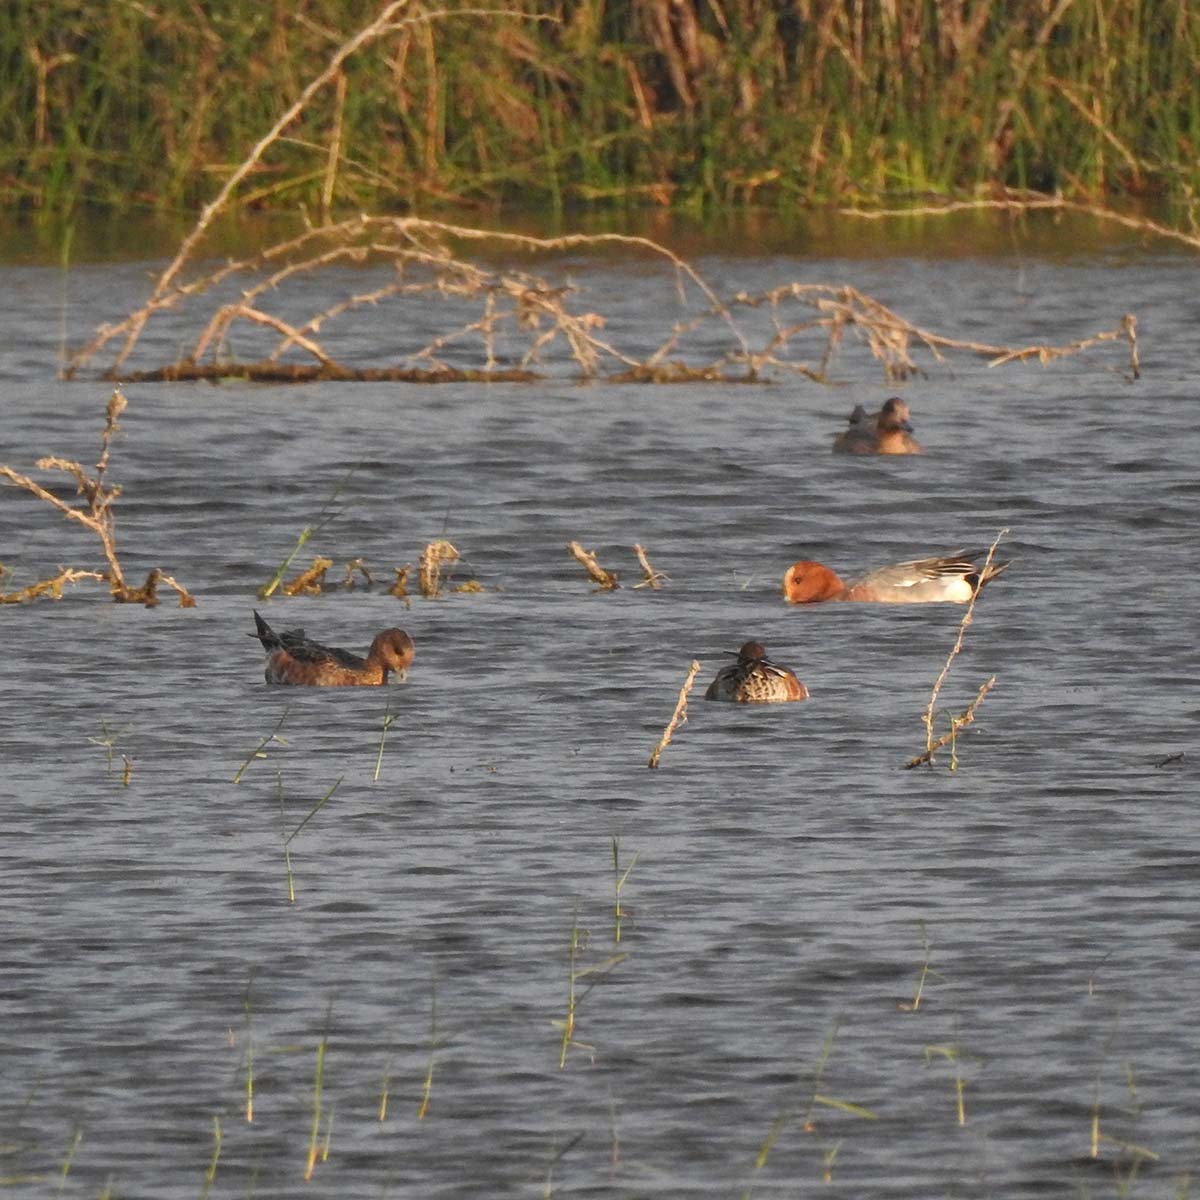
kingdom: Animalia
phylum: Chordata
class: Aves
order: Anseriformes
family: Anatidae
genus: Mareca
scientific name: Mareca penelope
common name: Eurasian wigeon
